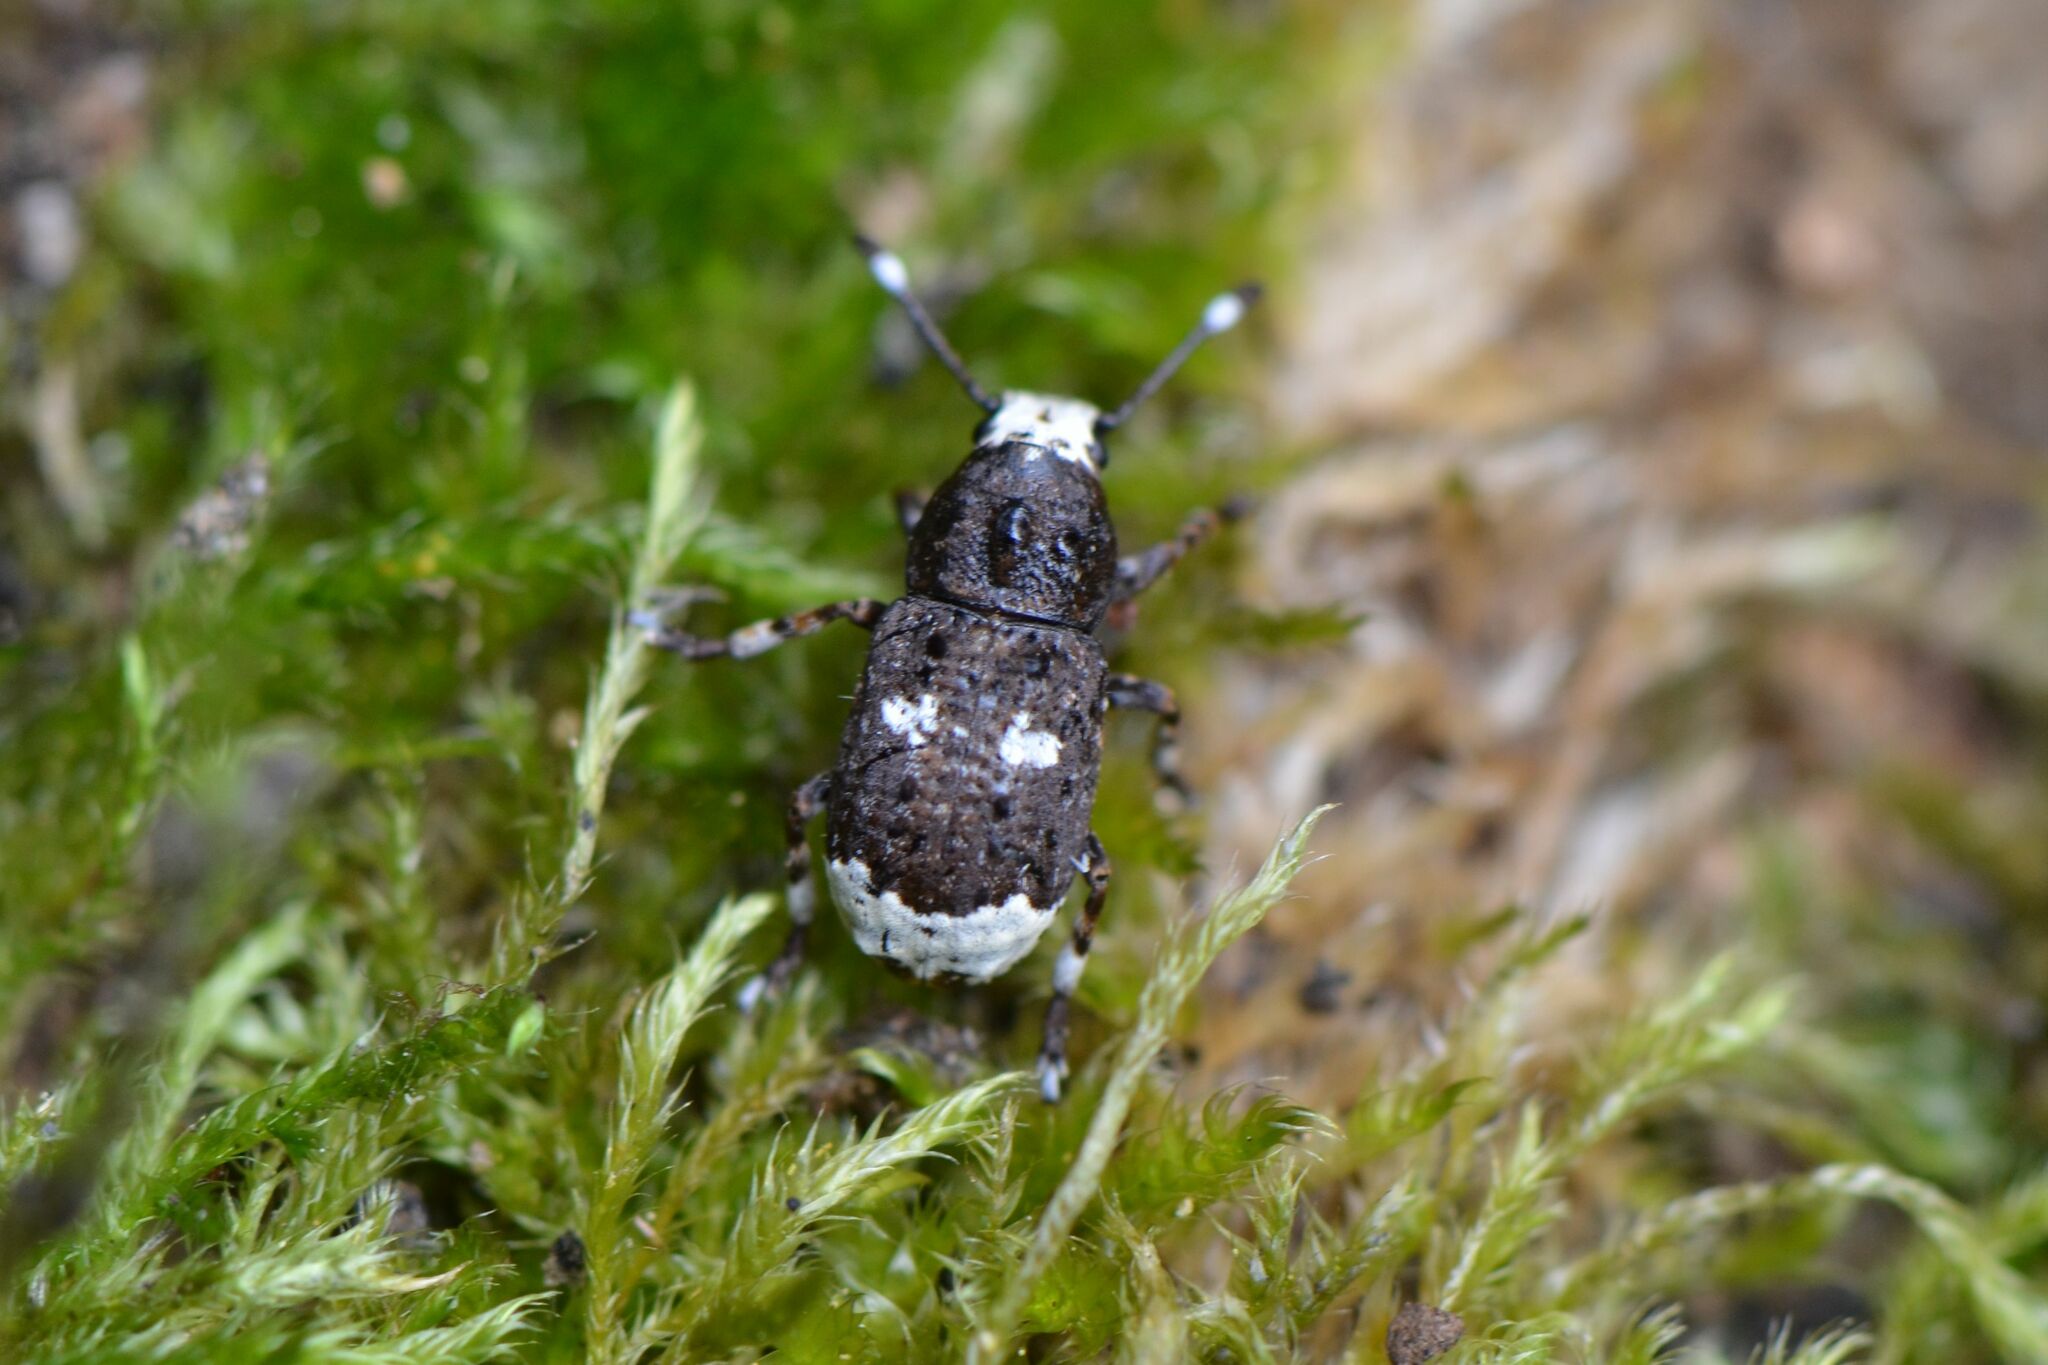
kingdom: Animalia
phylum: Arthropoda
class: Insecta
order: Coleoptera
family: Anthribidae
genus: Platystomos
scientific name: Platystomos albinus
